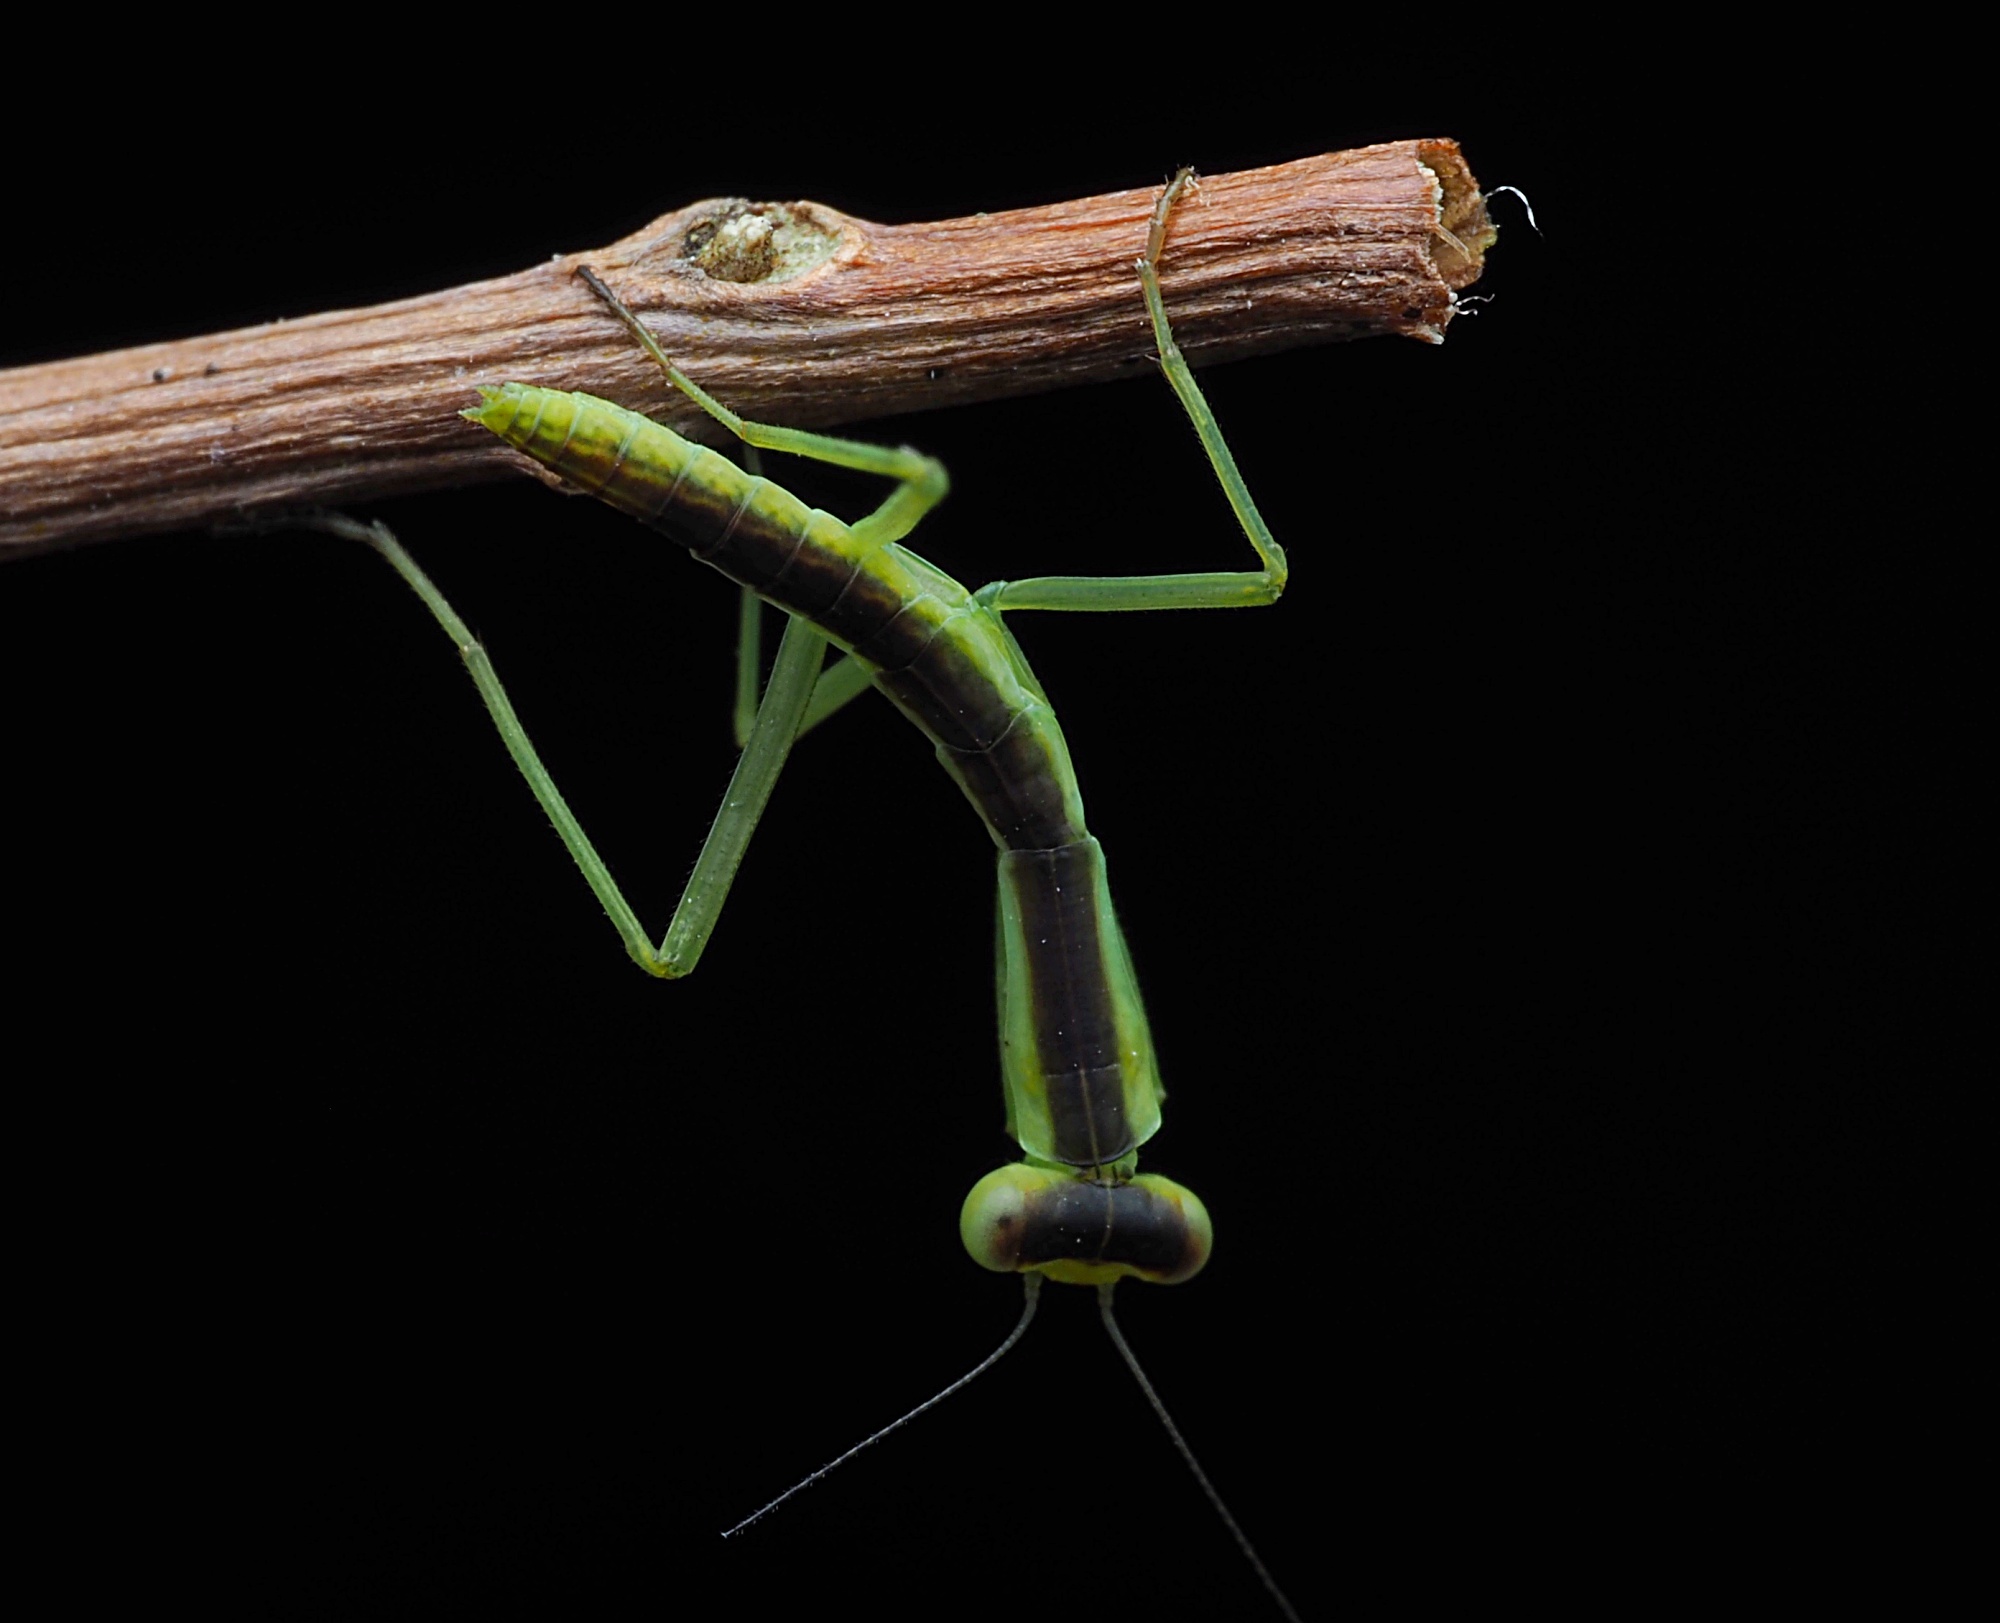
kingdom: Animalia
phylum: Arthropoda
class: Insecta
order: Mantodea
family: Mantidae
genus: Orthodera
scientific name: Orthodera novaezealandiae
